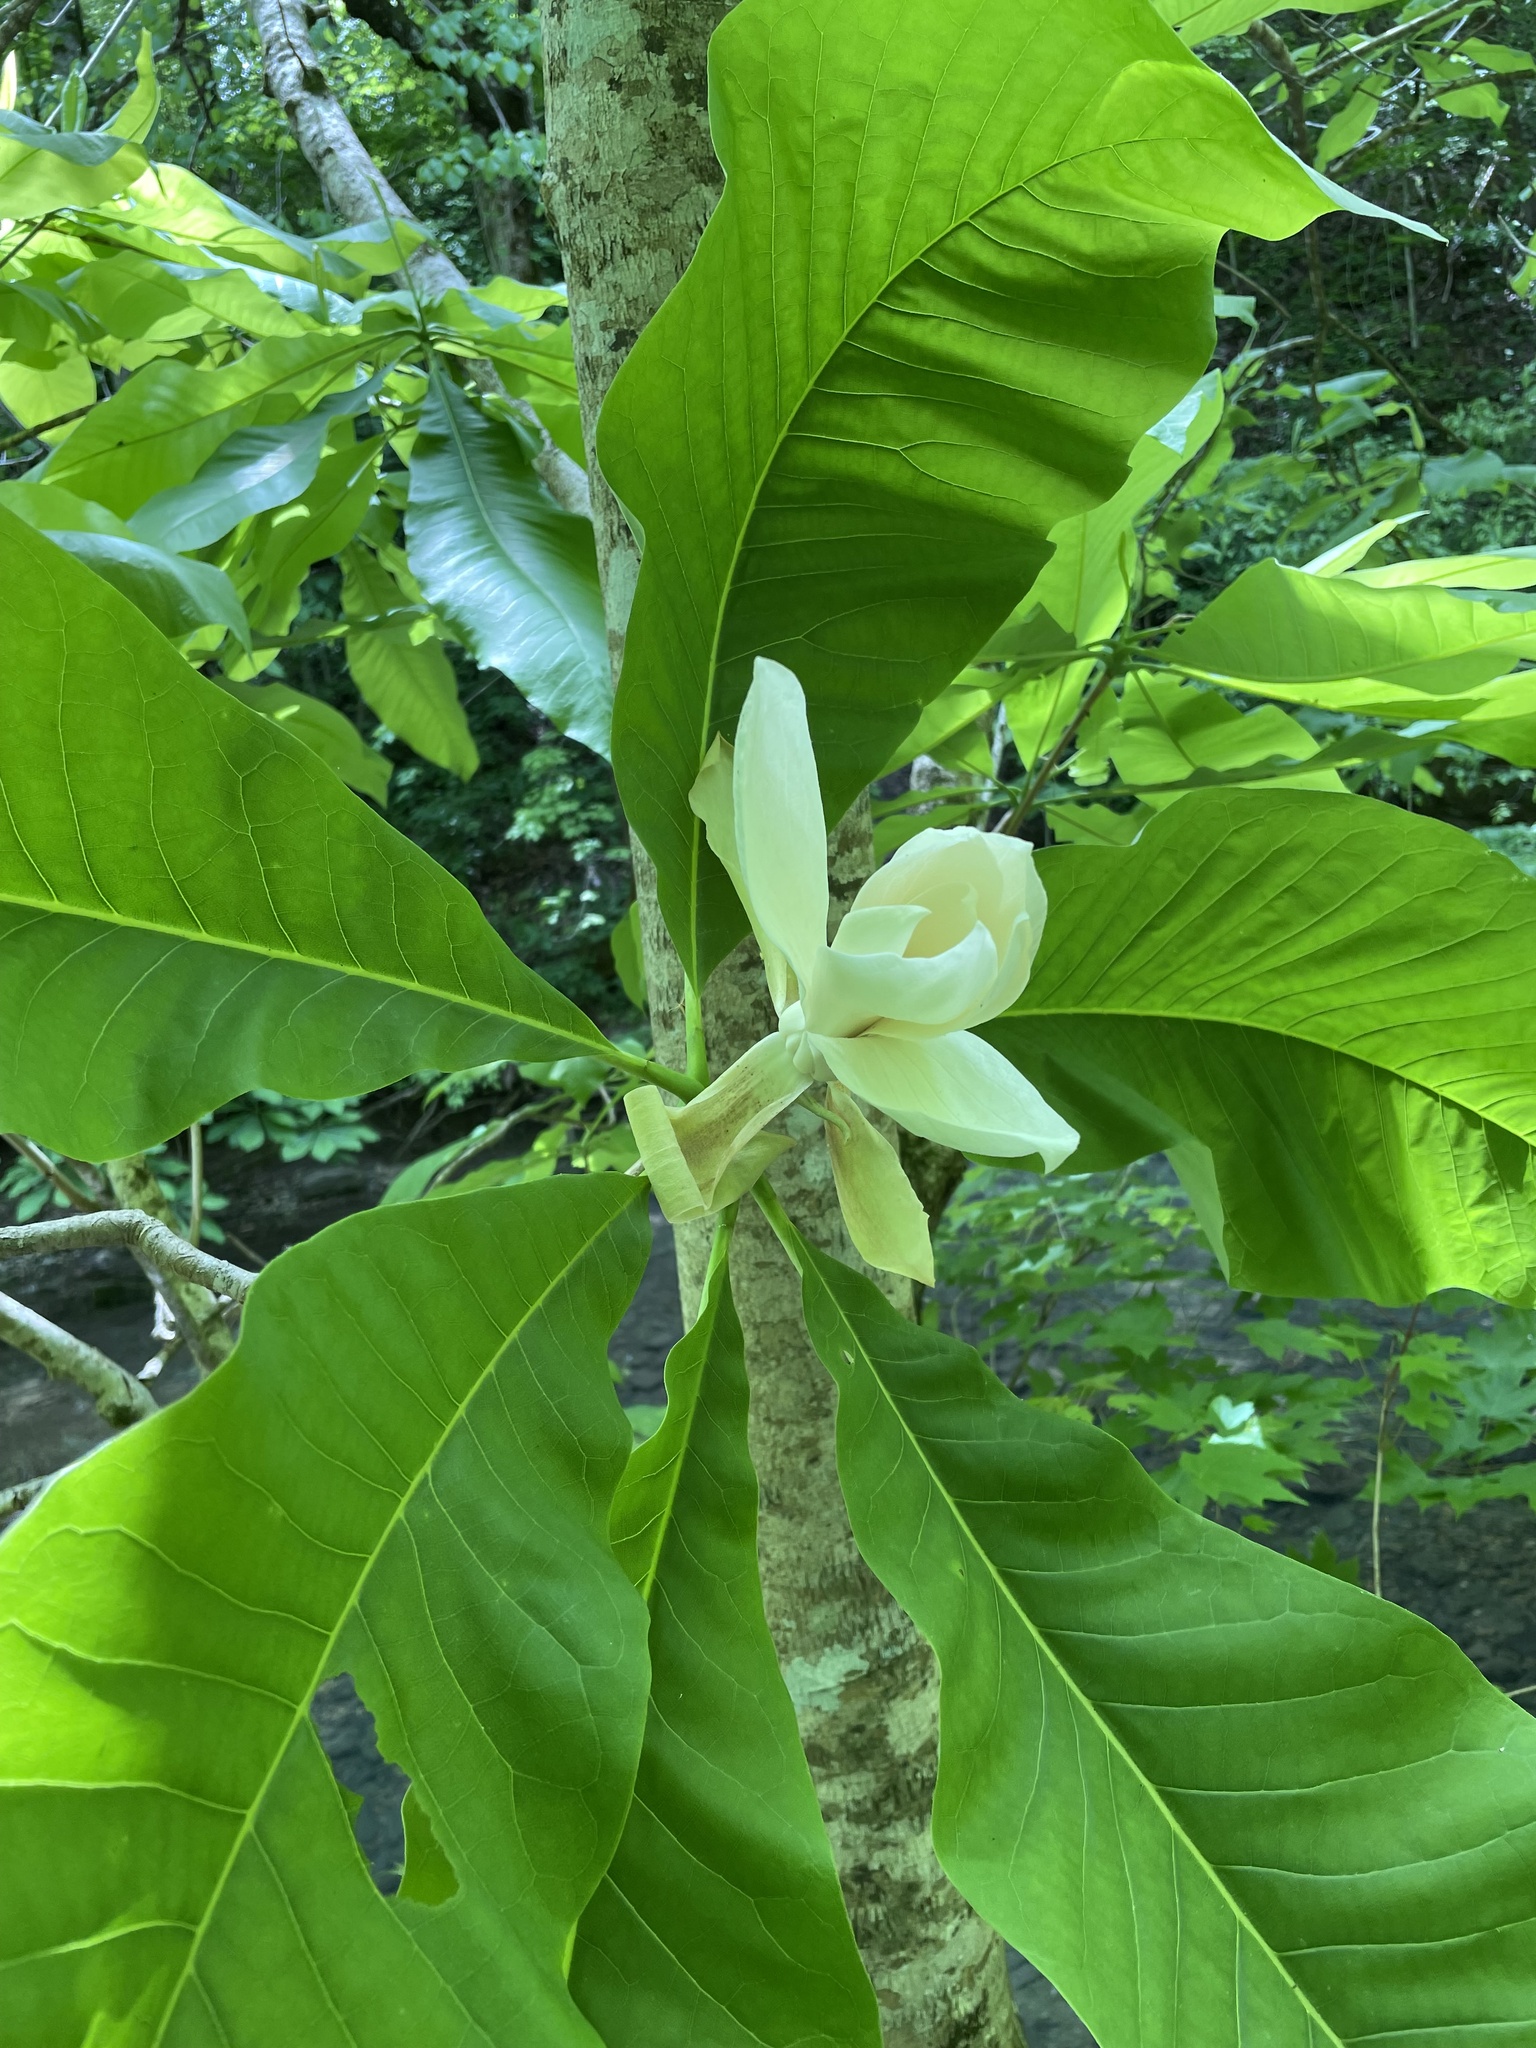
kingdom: Plantae
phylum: Tracheophyta
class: Magnoliopsida
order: Magnoliales
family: Magnoliaceae
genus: Magnolia
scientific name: Magnolia tripetala
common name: Umbrella magnolia
